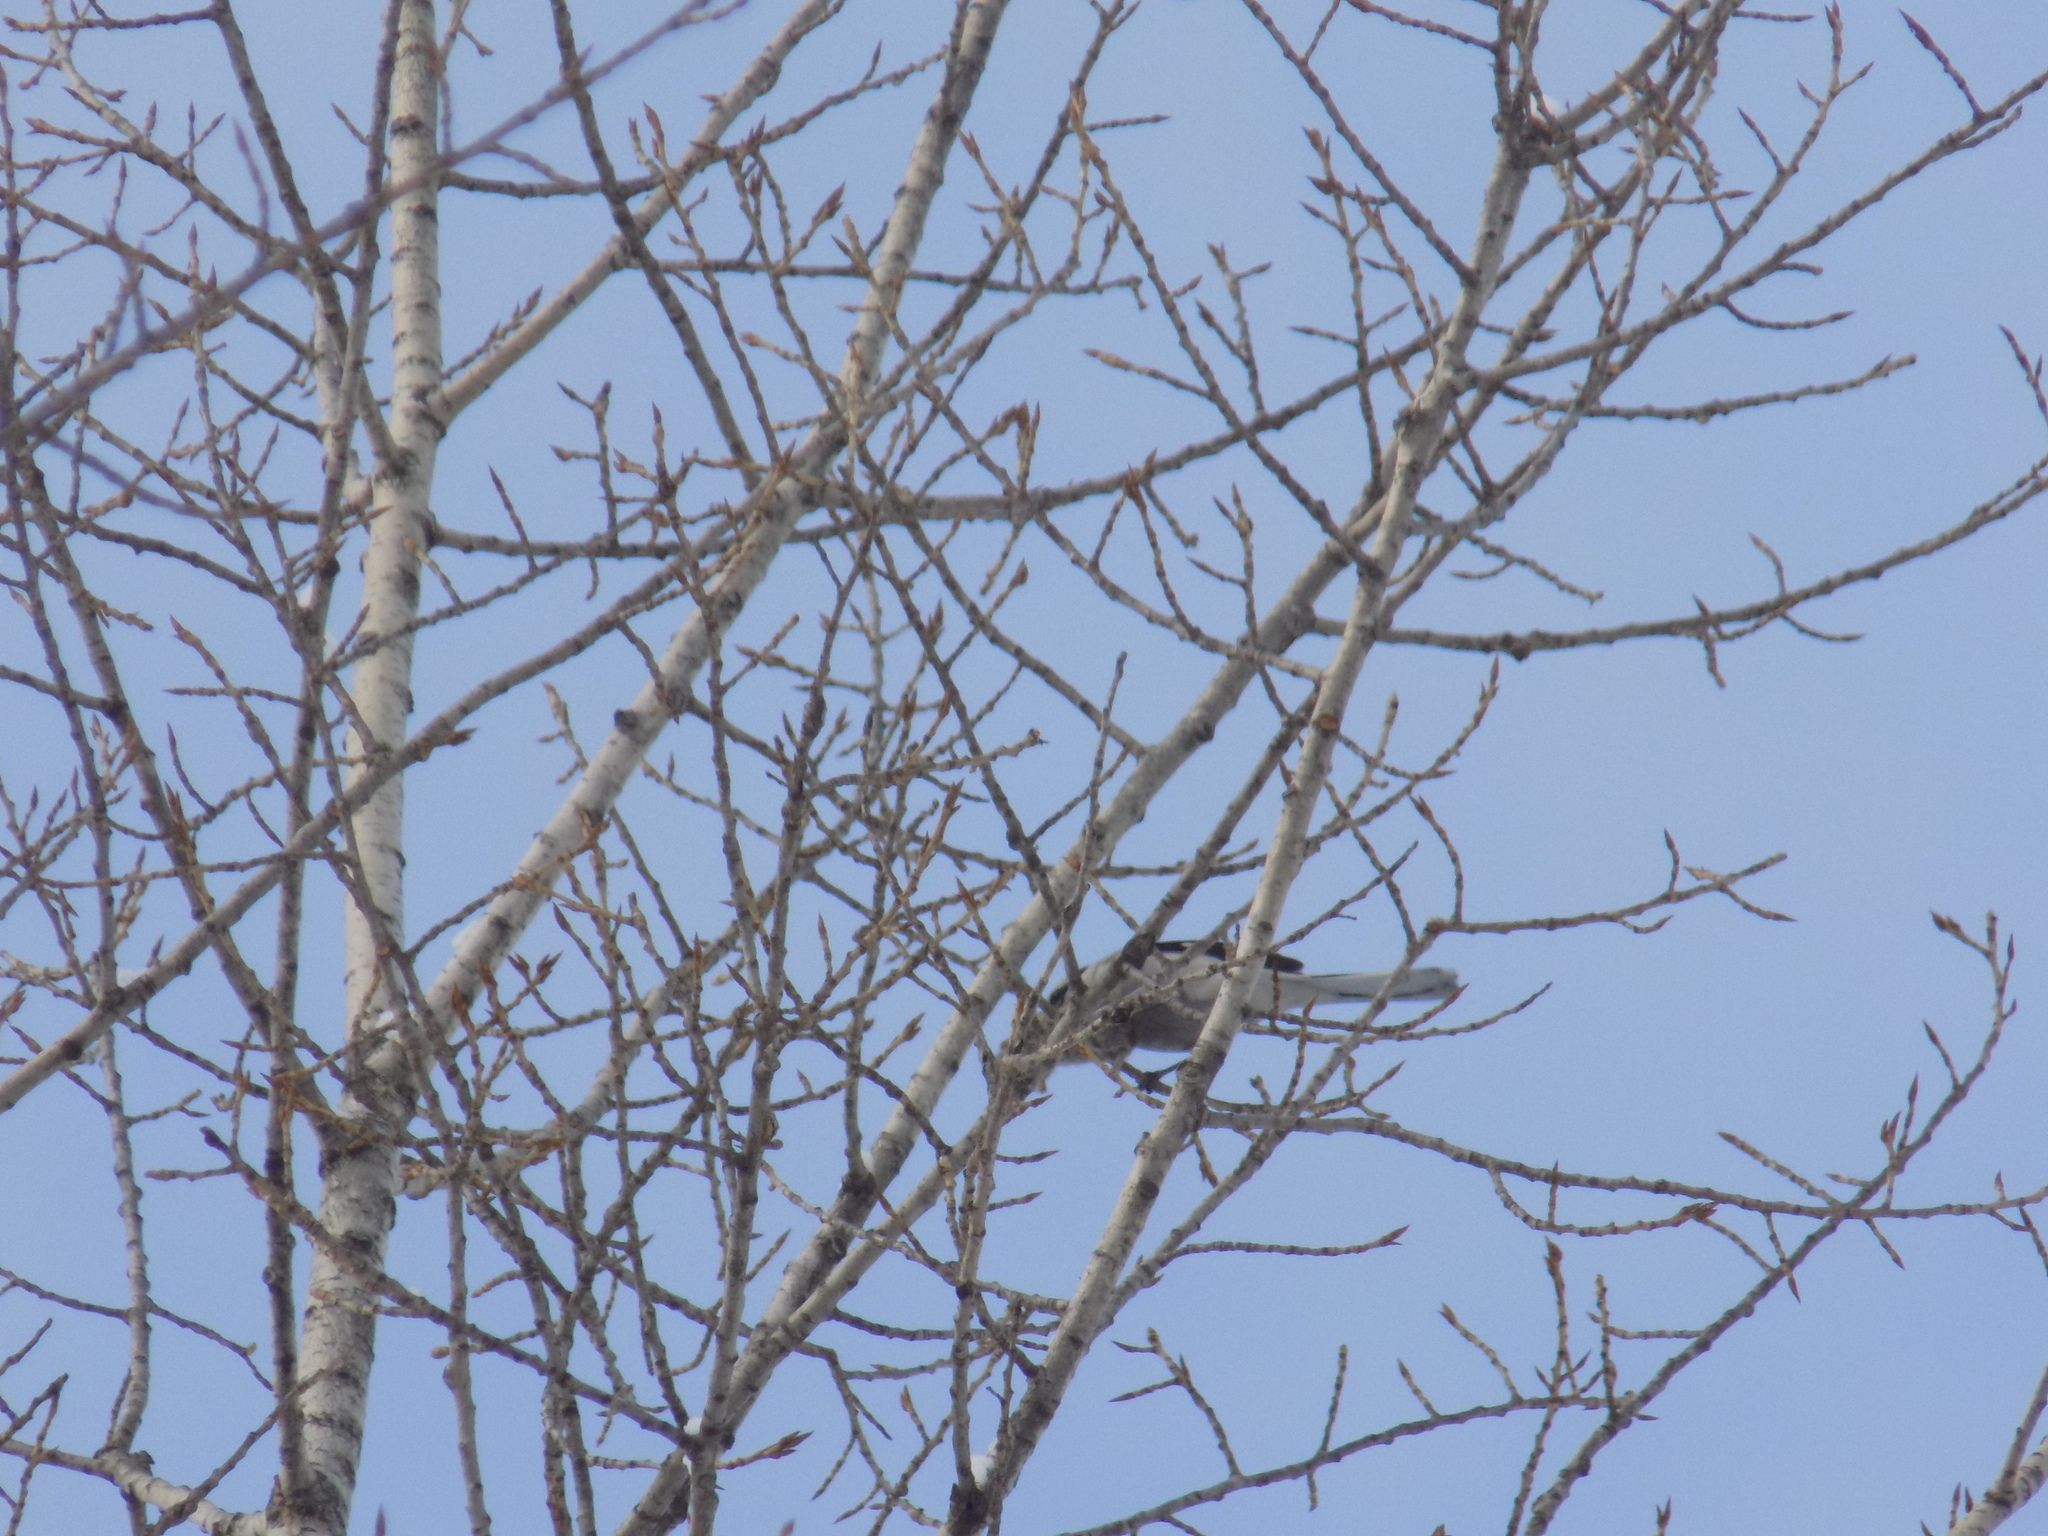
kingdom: Animalia
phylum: Chordata
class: Aves
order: Passeriformes
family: Laniidae
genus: Lanius
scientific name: Lanius
